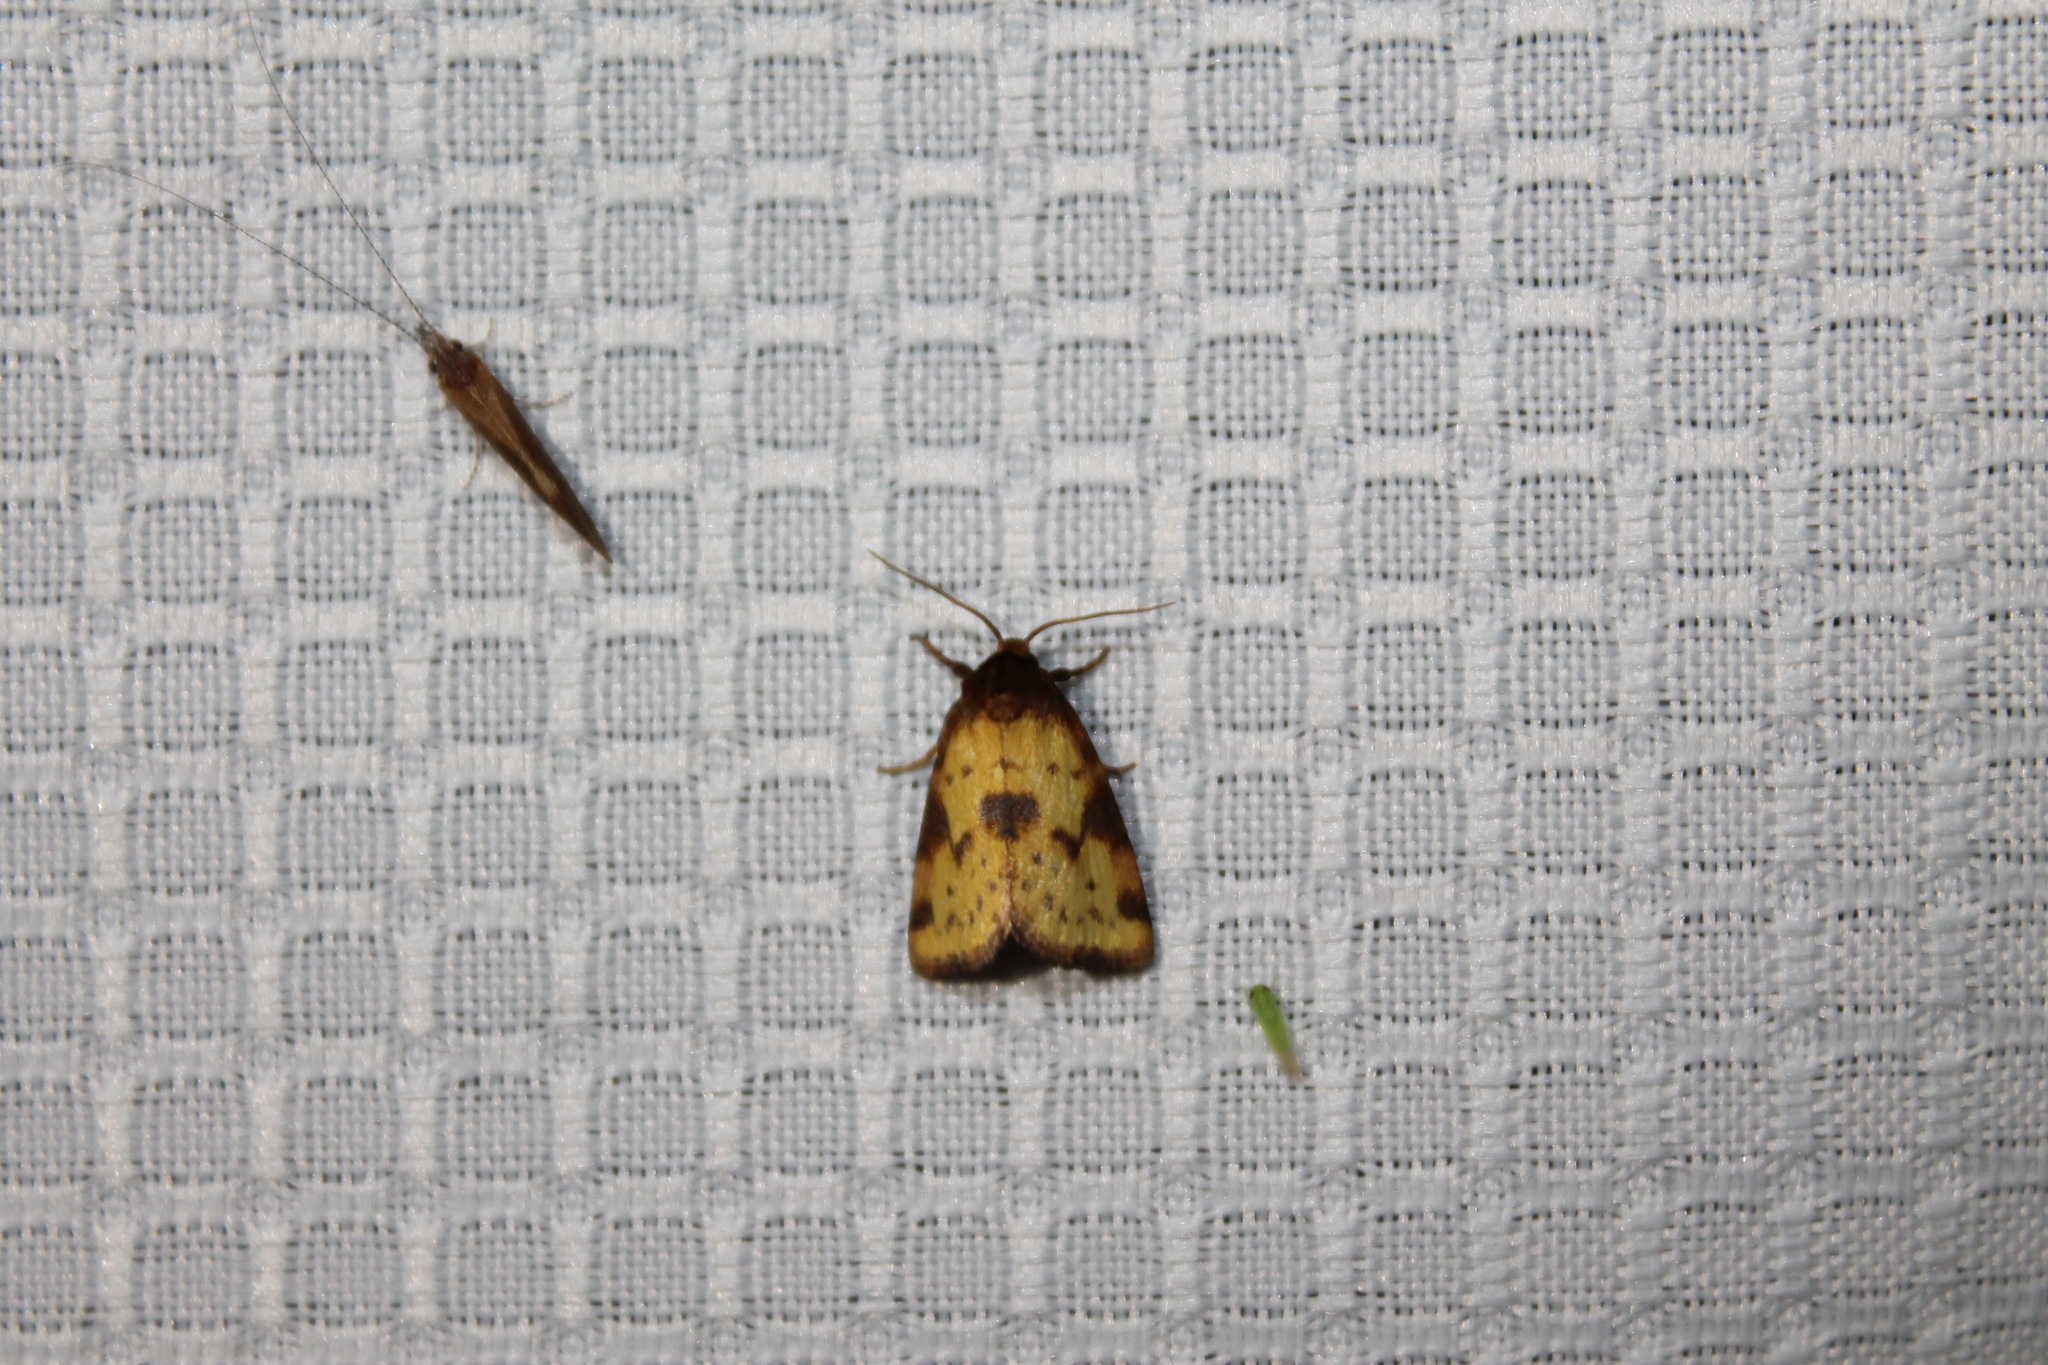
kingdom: Animalia
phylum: Arthropoda
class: Insecta
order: Lepidoptera
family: Noctuidae
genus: Azenia
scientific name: Azenia obtusa
